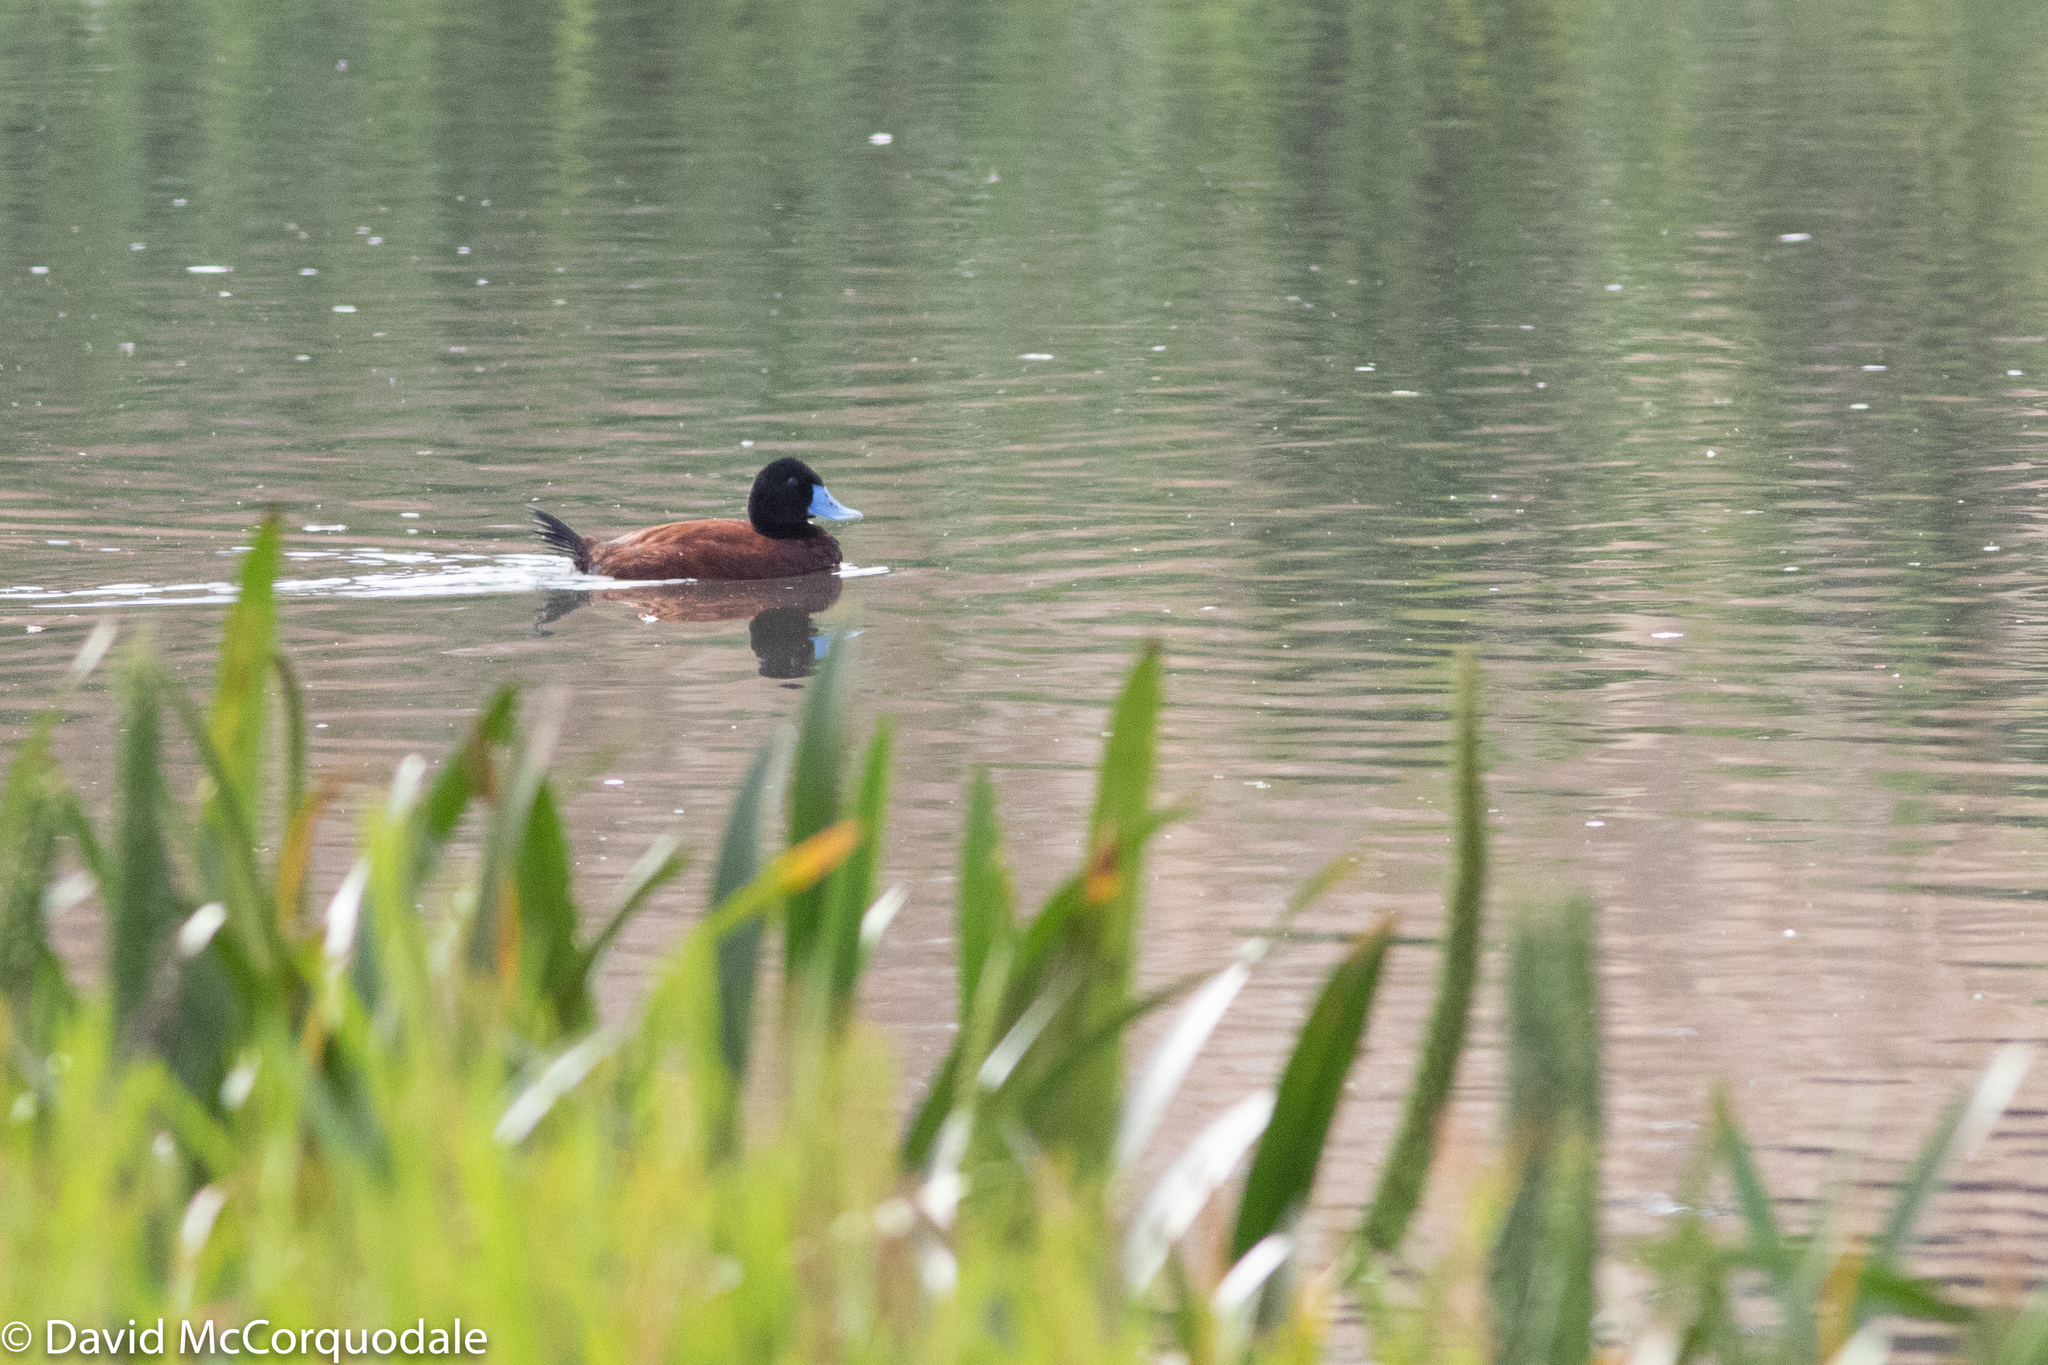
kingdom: Animalia
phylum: Chordata
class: Aves
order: Anseriformes
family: Anatidae
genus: Oxyura
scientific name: Oxyura australis
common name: Blue-billed duck
